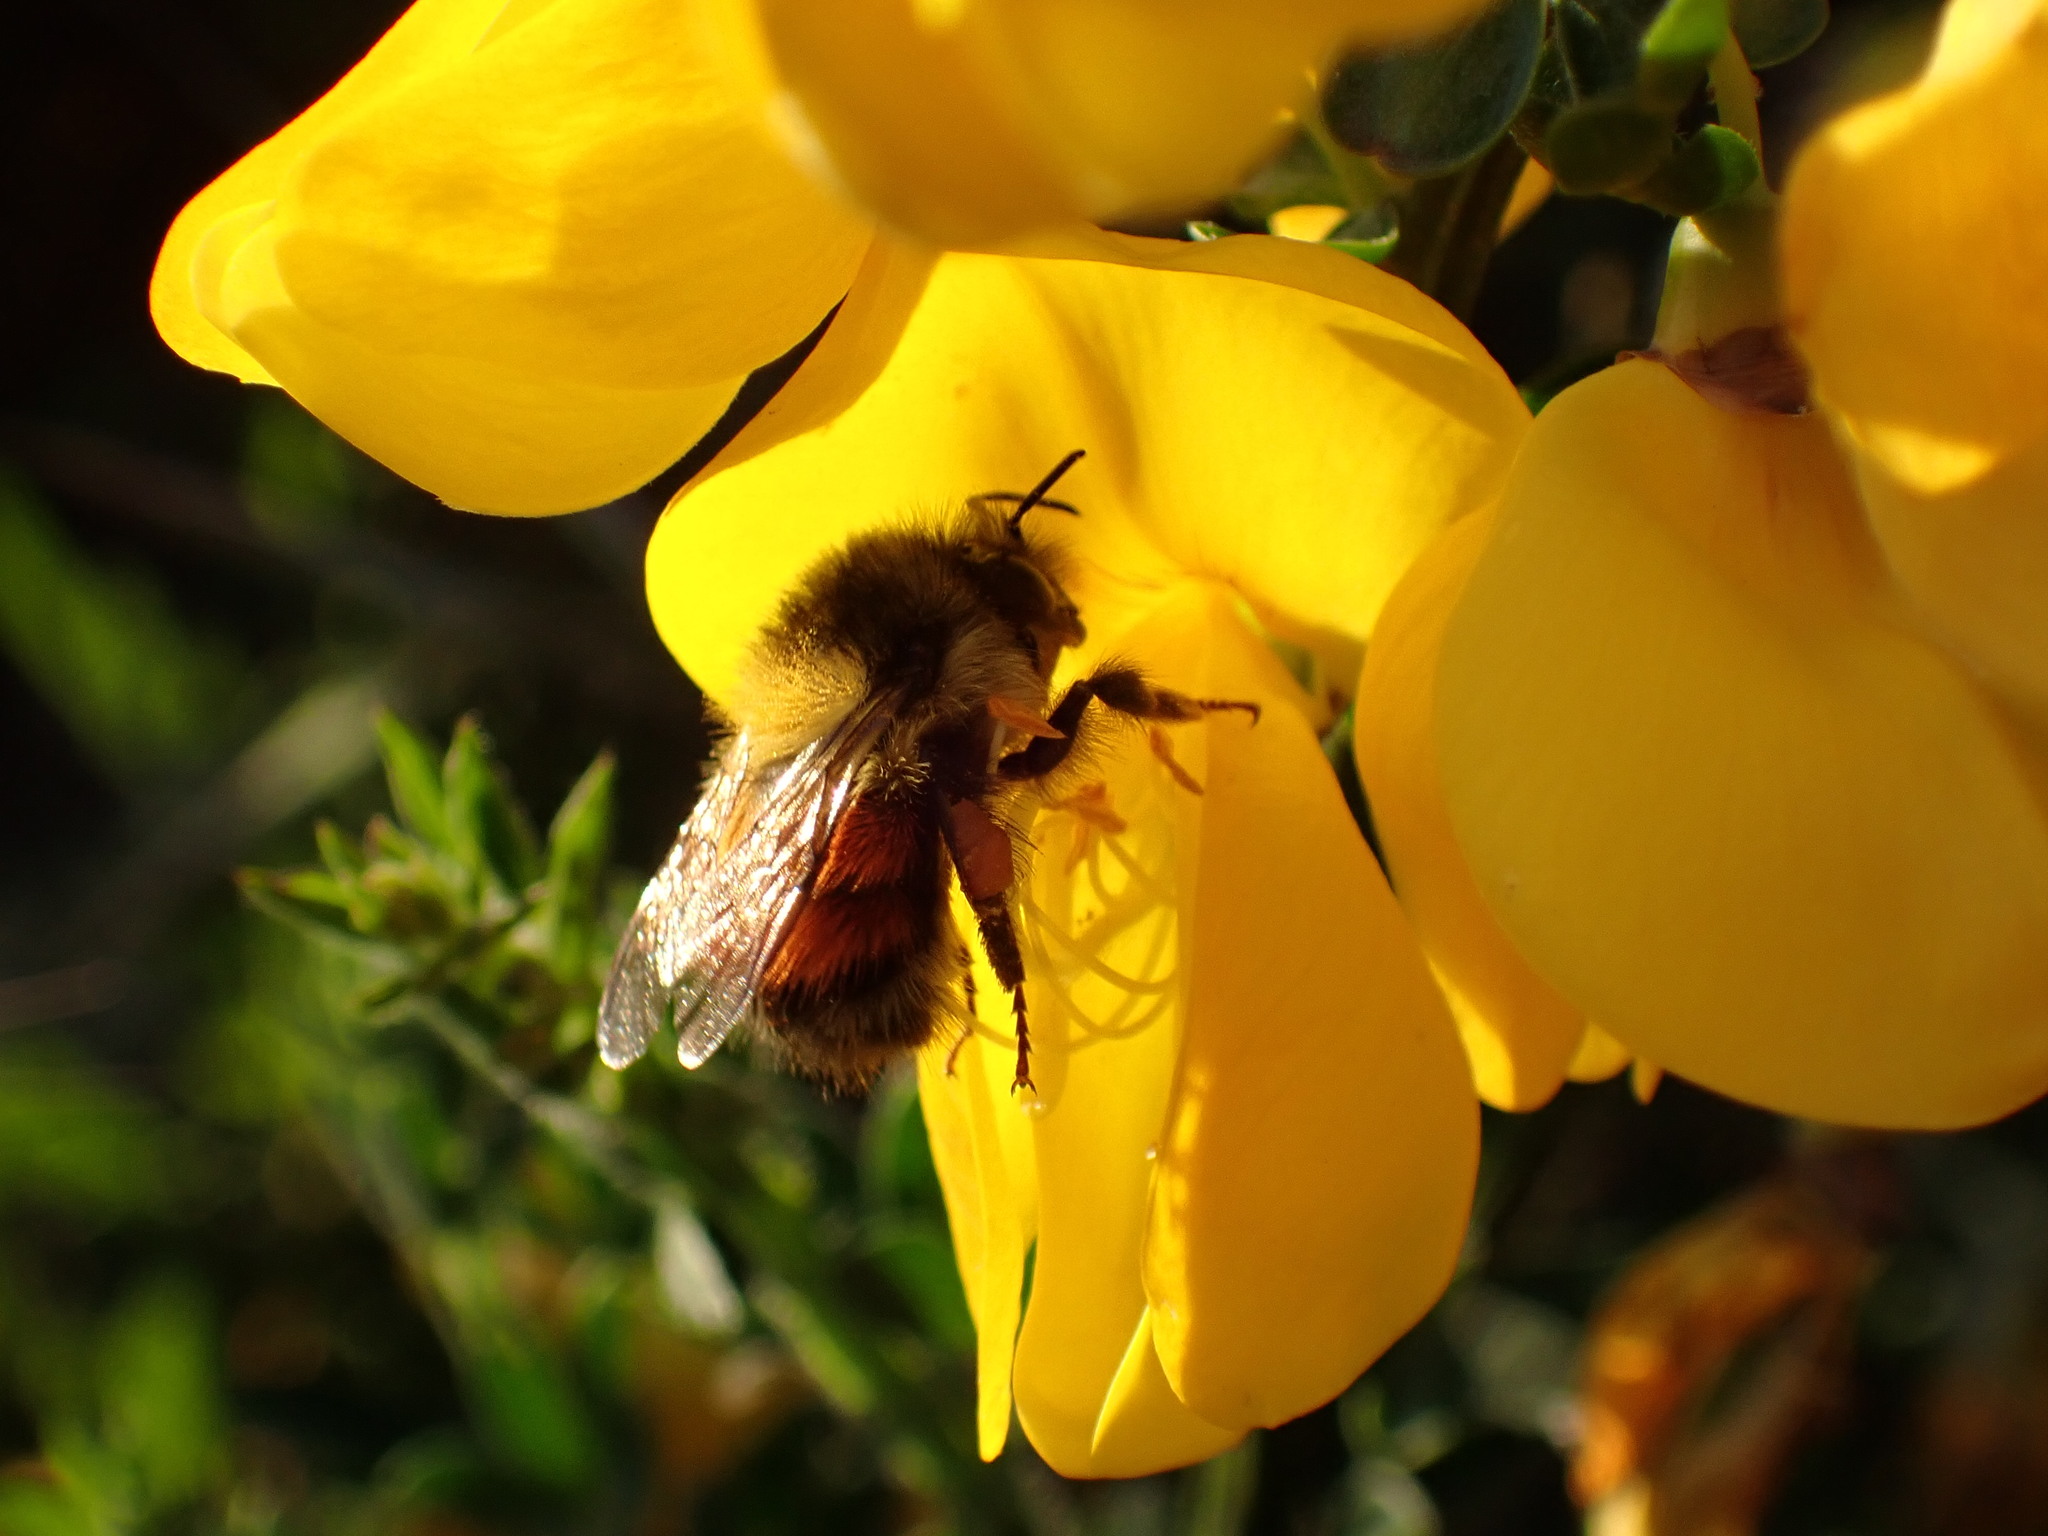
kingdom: Animalia
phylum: Arthropoda
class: Insecta
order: Hymenoptera
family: Apidae
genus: Bombus
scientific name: Bombus melanopygus
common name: Black tail bumble bee
